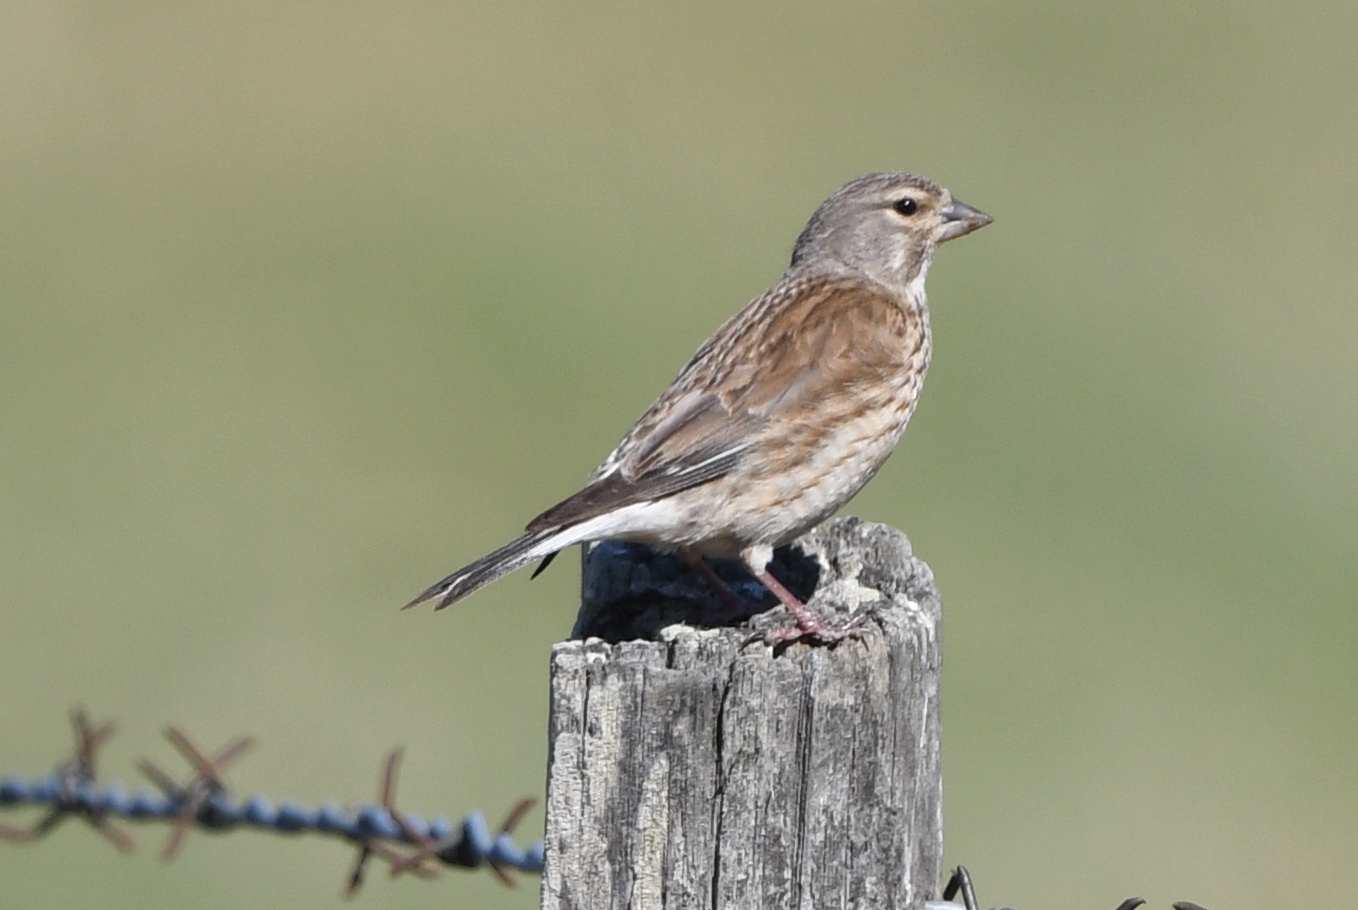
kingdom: Animalia
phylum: Chordata
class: Aves
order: Passeriformes
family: Fringillidae
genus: Linaria
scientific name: Linaria cannabina
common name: Common linnet
